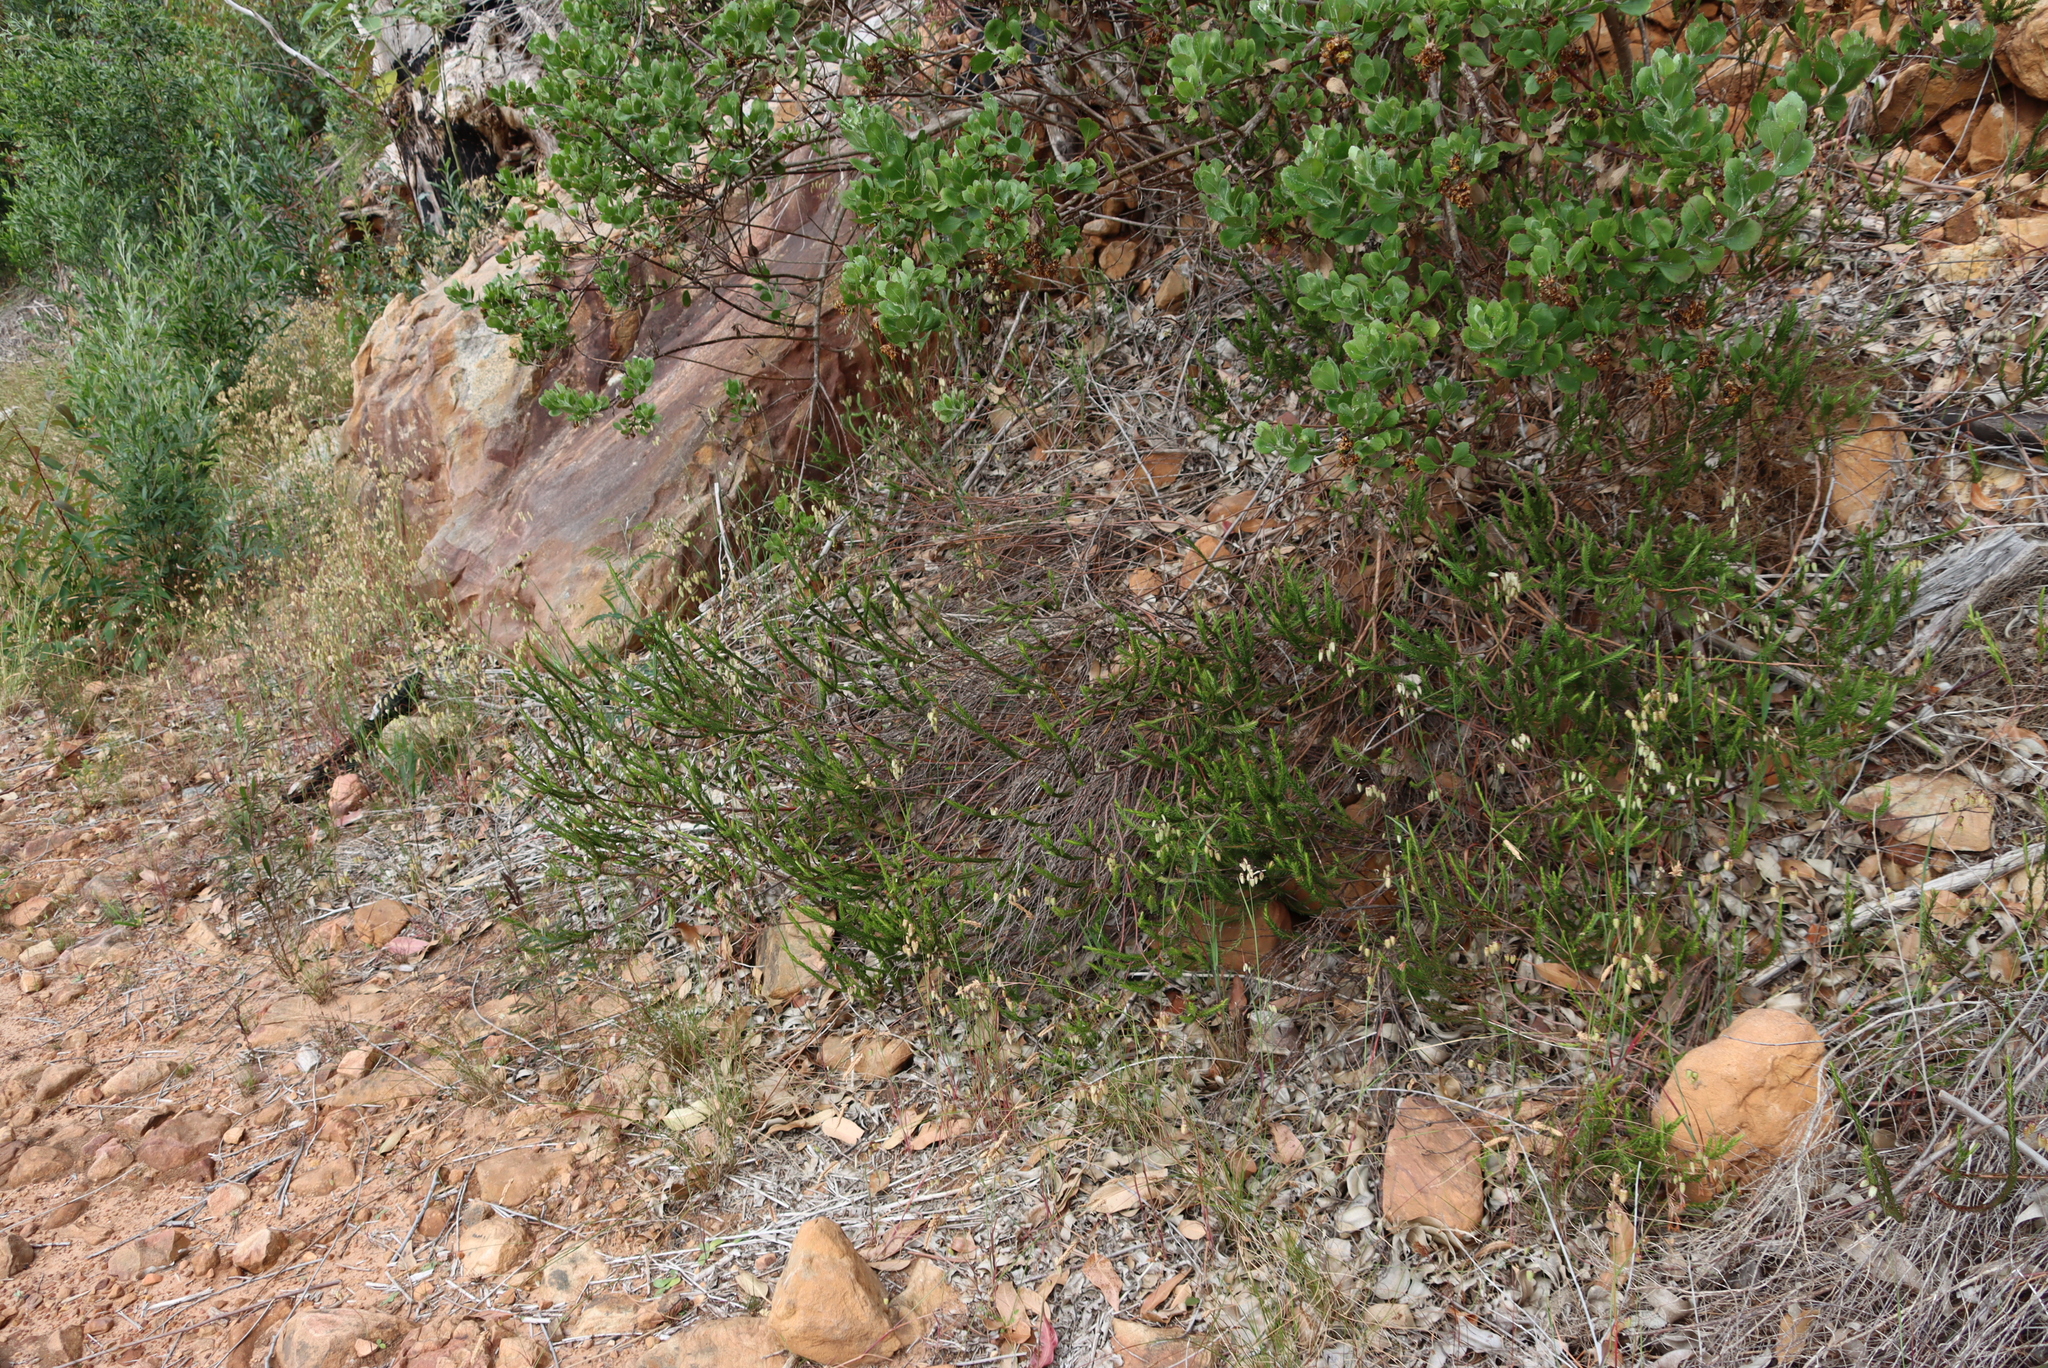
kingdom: Plantae
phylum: Tracheophyta
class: Magnoliopsida
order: Malvales
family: Thymelaeaceae
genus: Struthiola
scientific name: Struthiola ciliata
